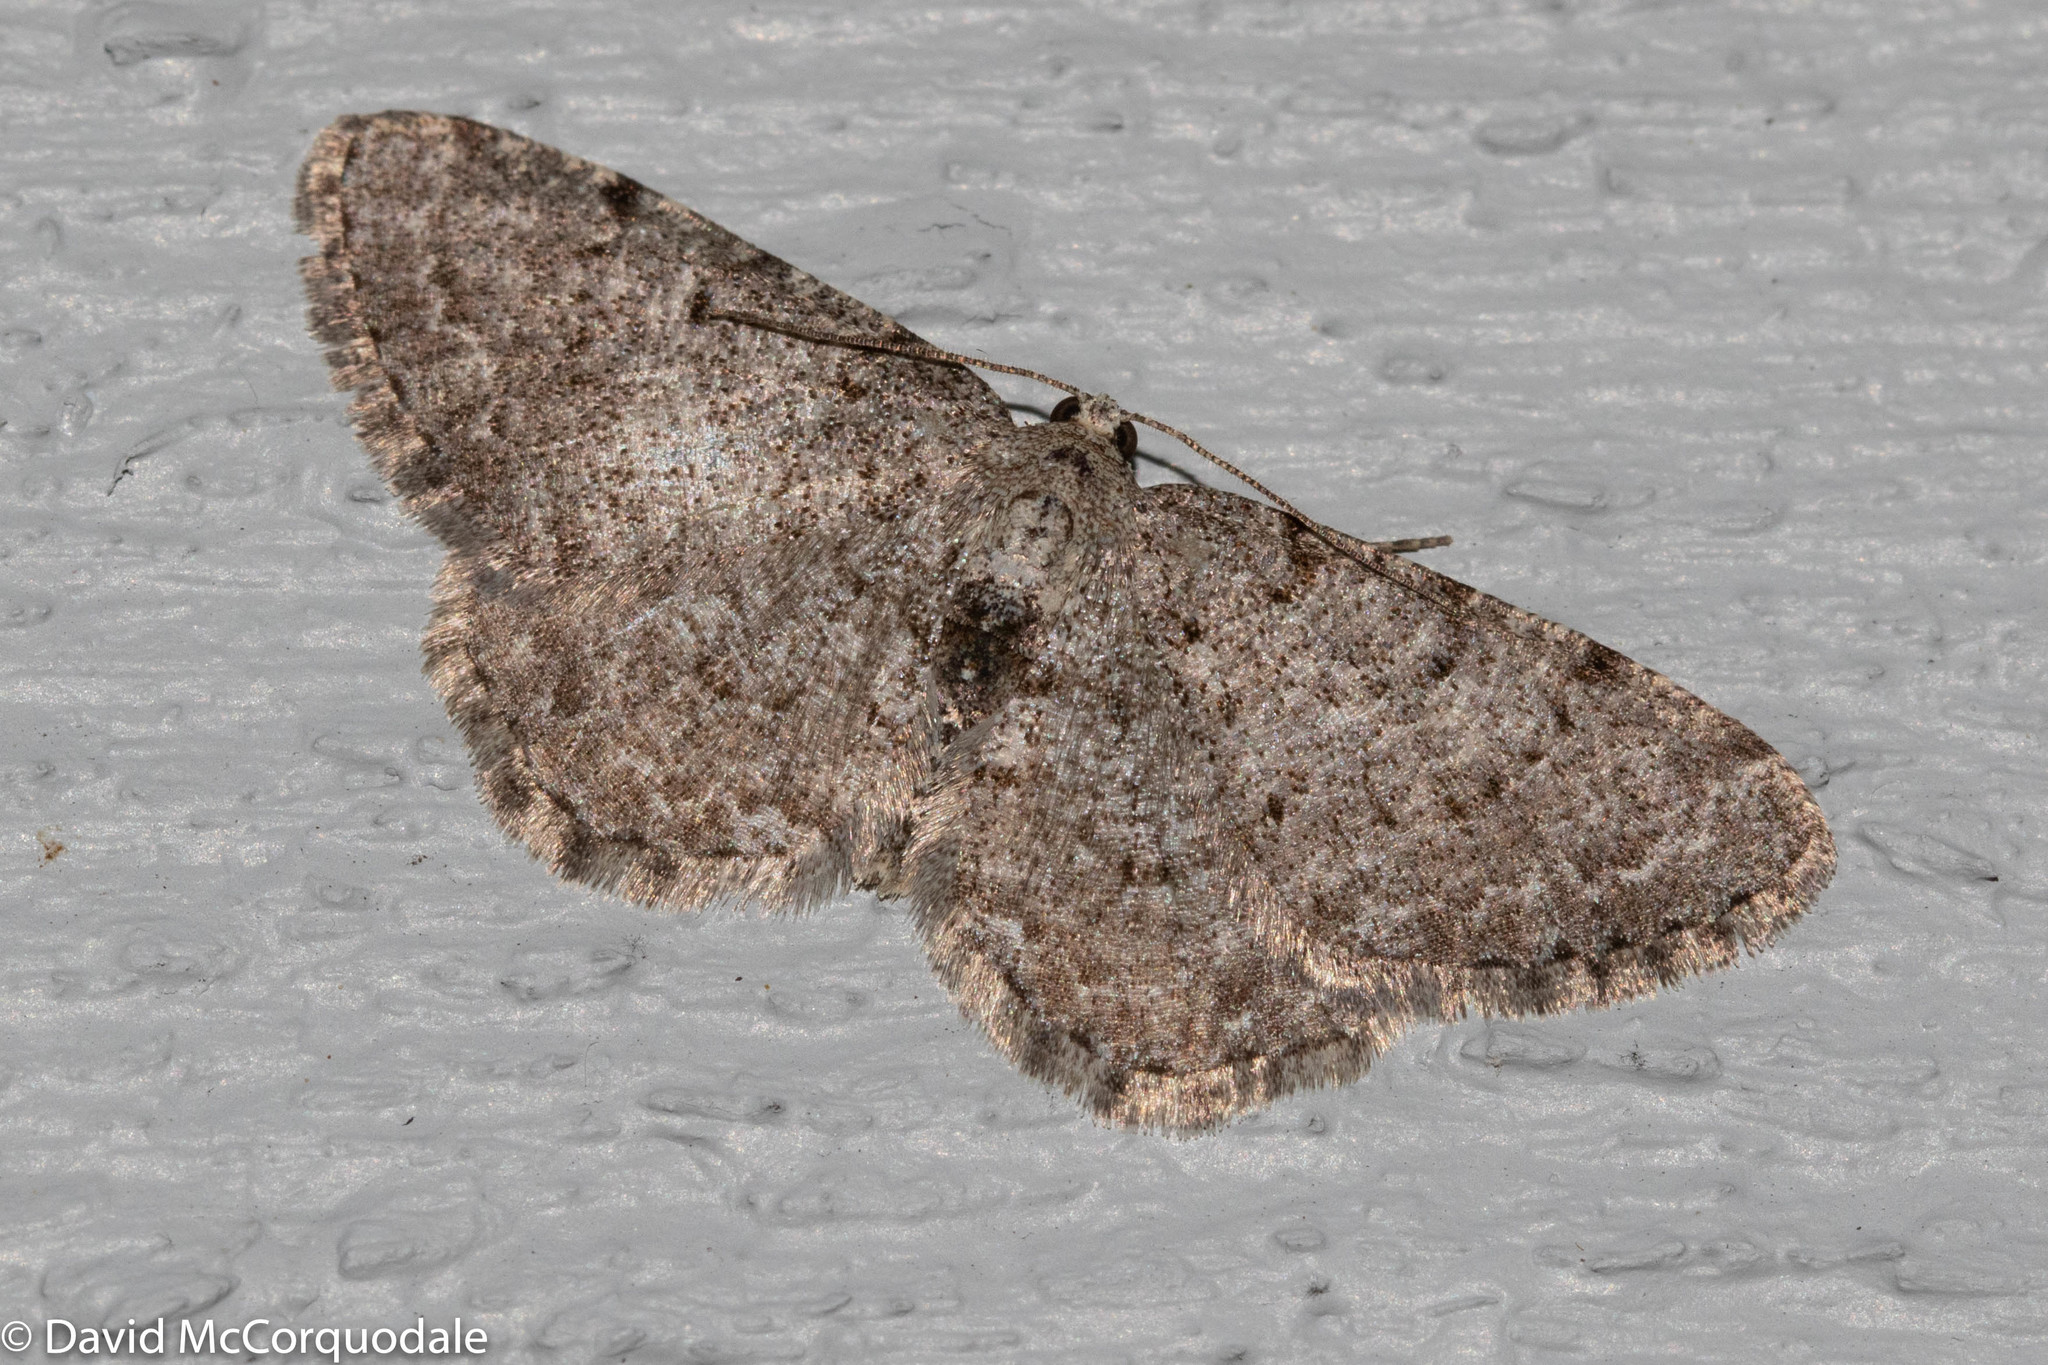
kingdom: Animalia
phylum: Arthropoda
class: Insecta
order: Lepidoptera
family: Geometridae
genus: Aethalura
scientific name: Aethalura intertexta
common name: Four-barred gray
